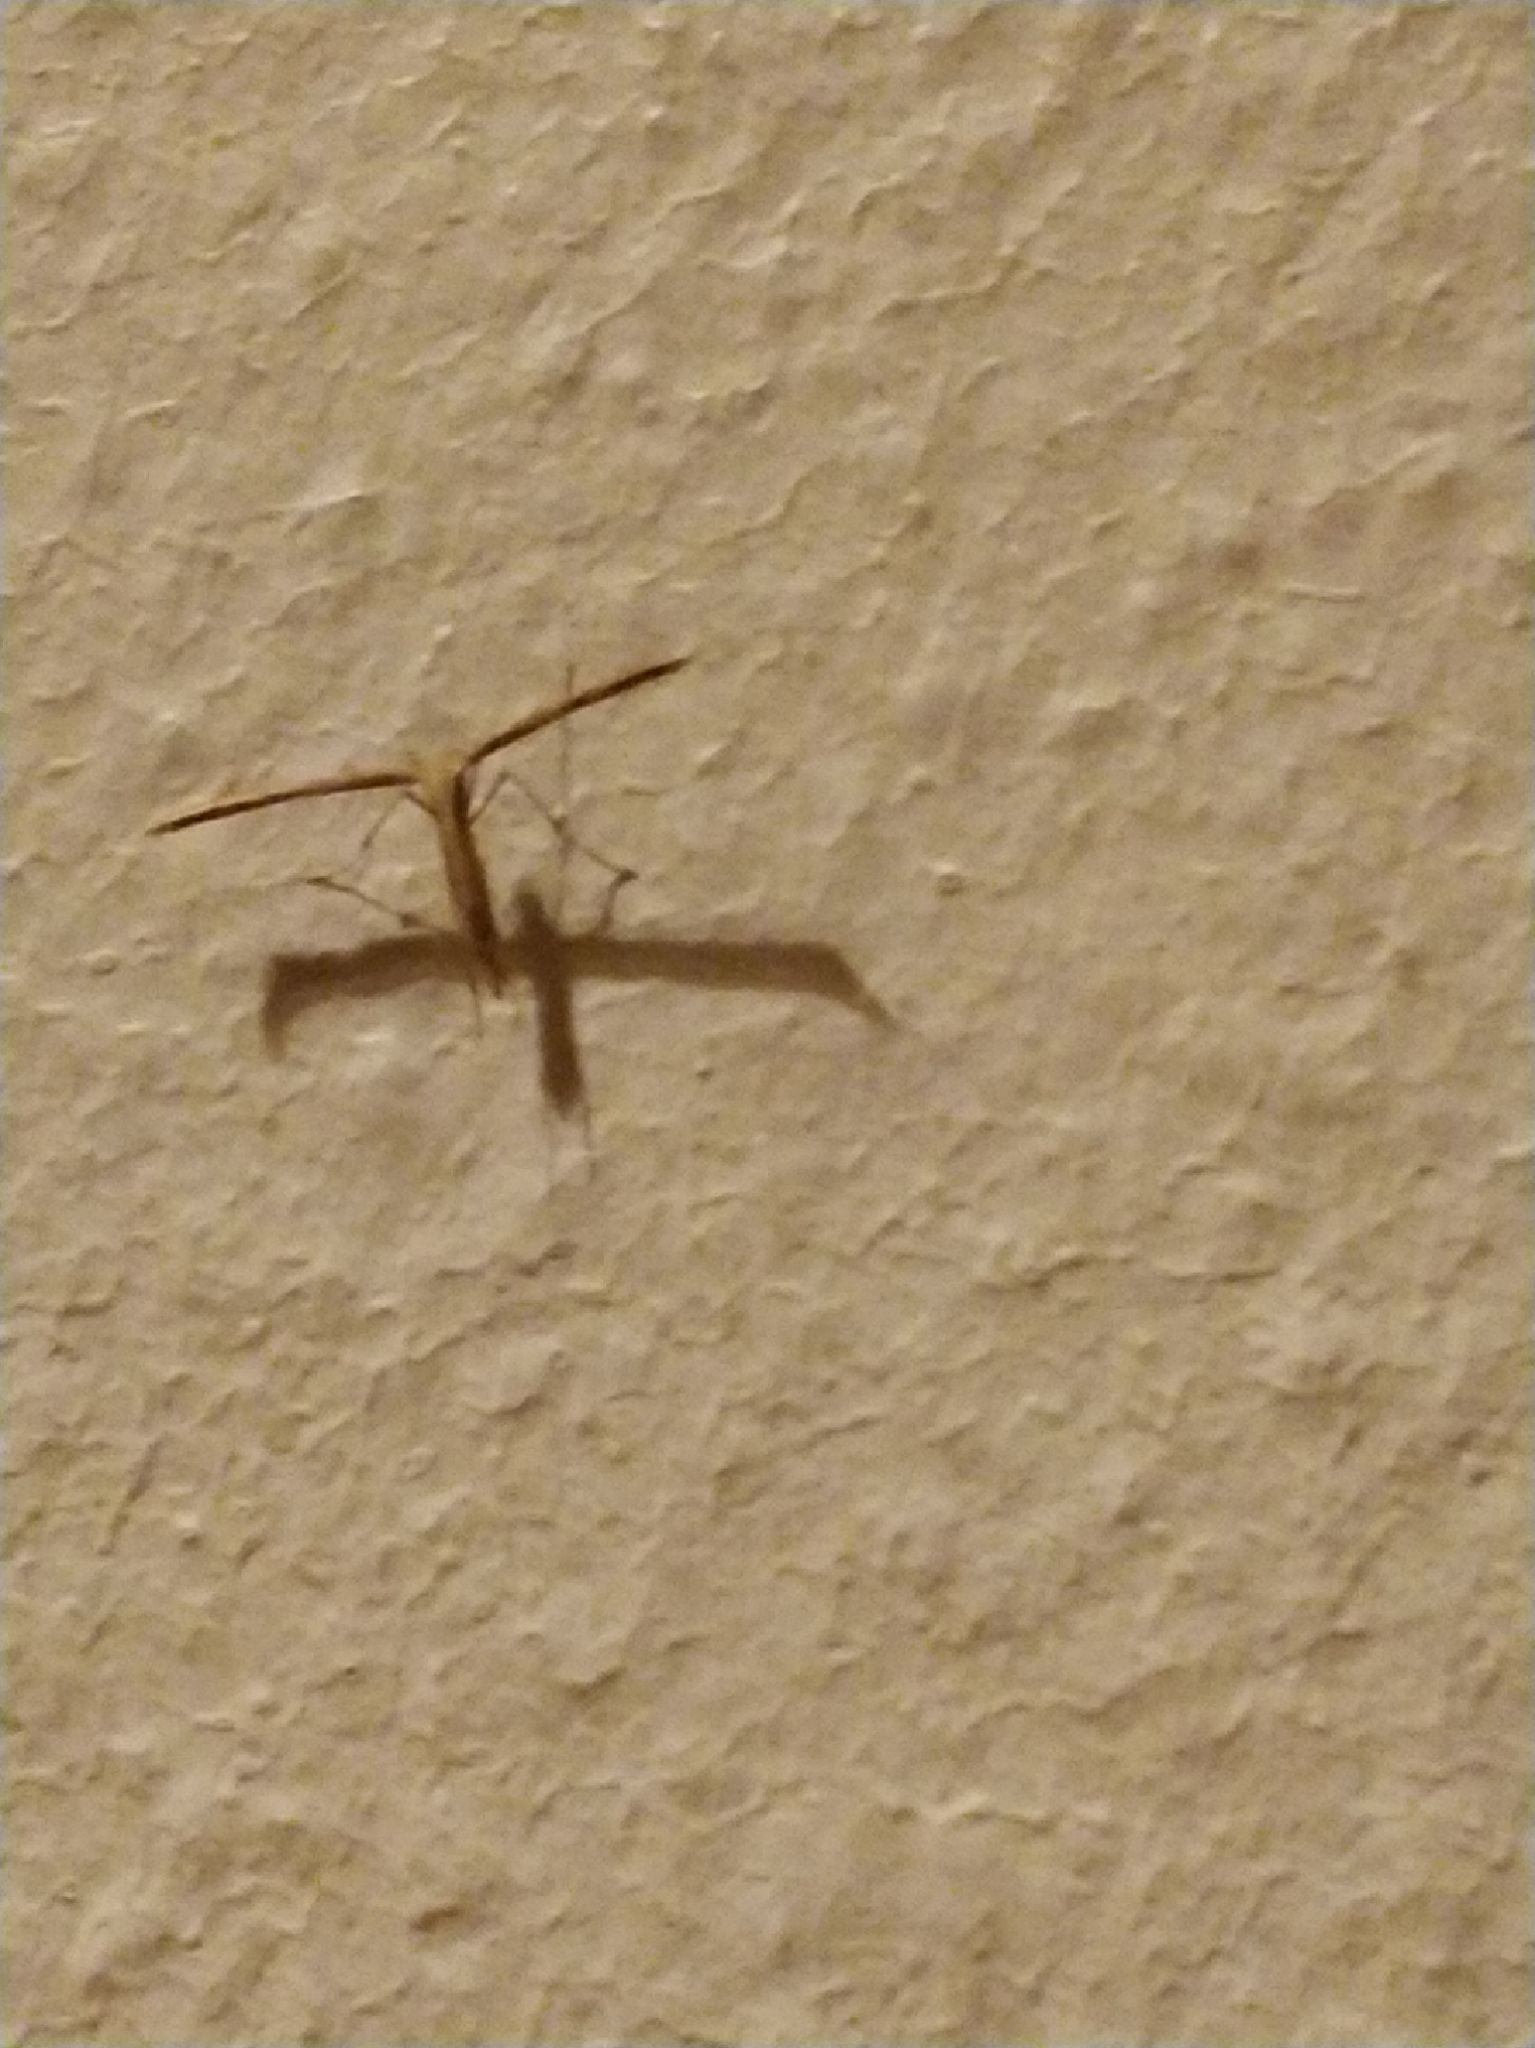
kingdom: Animalia
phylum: Arthropoda
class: Insecta
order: Lepidoptera
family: Pterophoridae
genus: Emmelina
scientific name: Emmelina monodactyla
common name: Common plume
